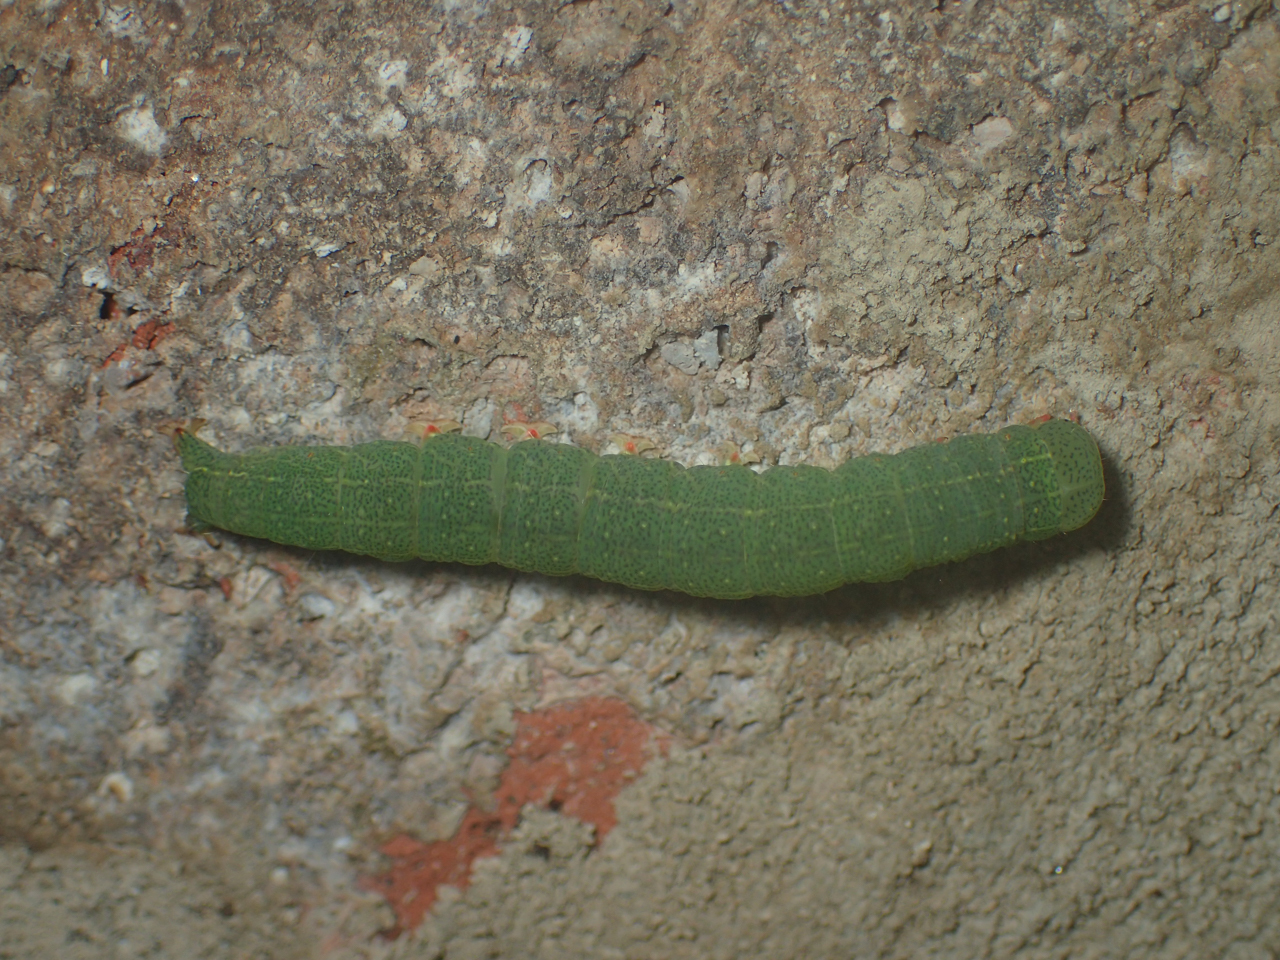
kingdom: Animalia
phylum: Arthropoda
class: Insecta
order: Lepidoptera
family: Erebidae
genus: Panopoda
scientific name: Panopoda rufimargo
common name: Red-lined panopoda moth
